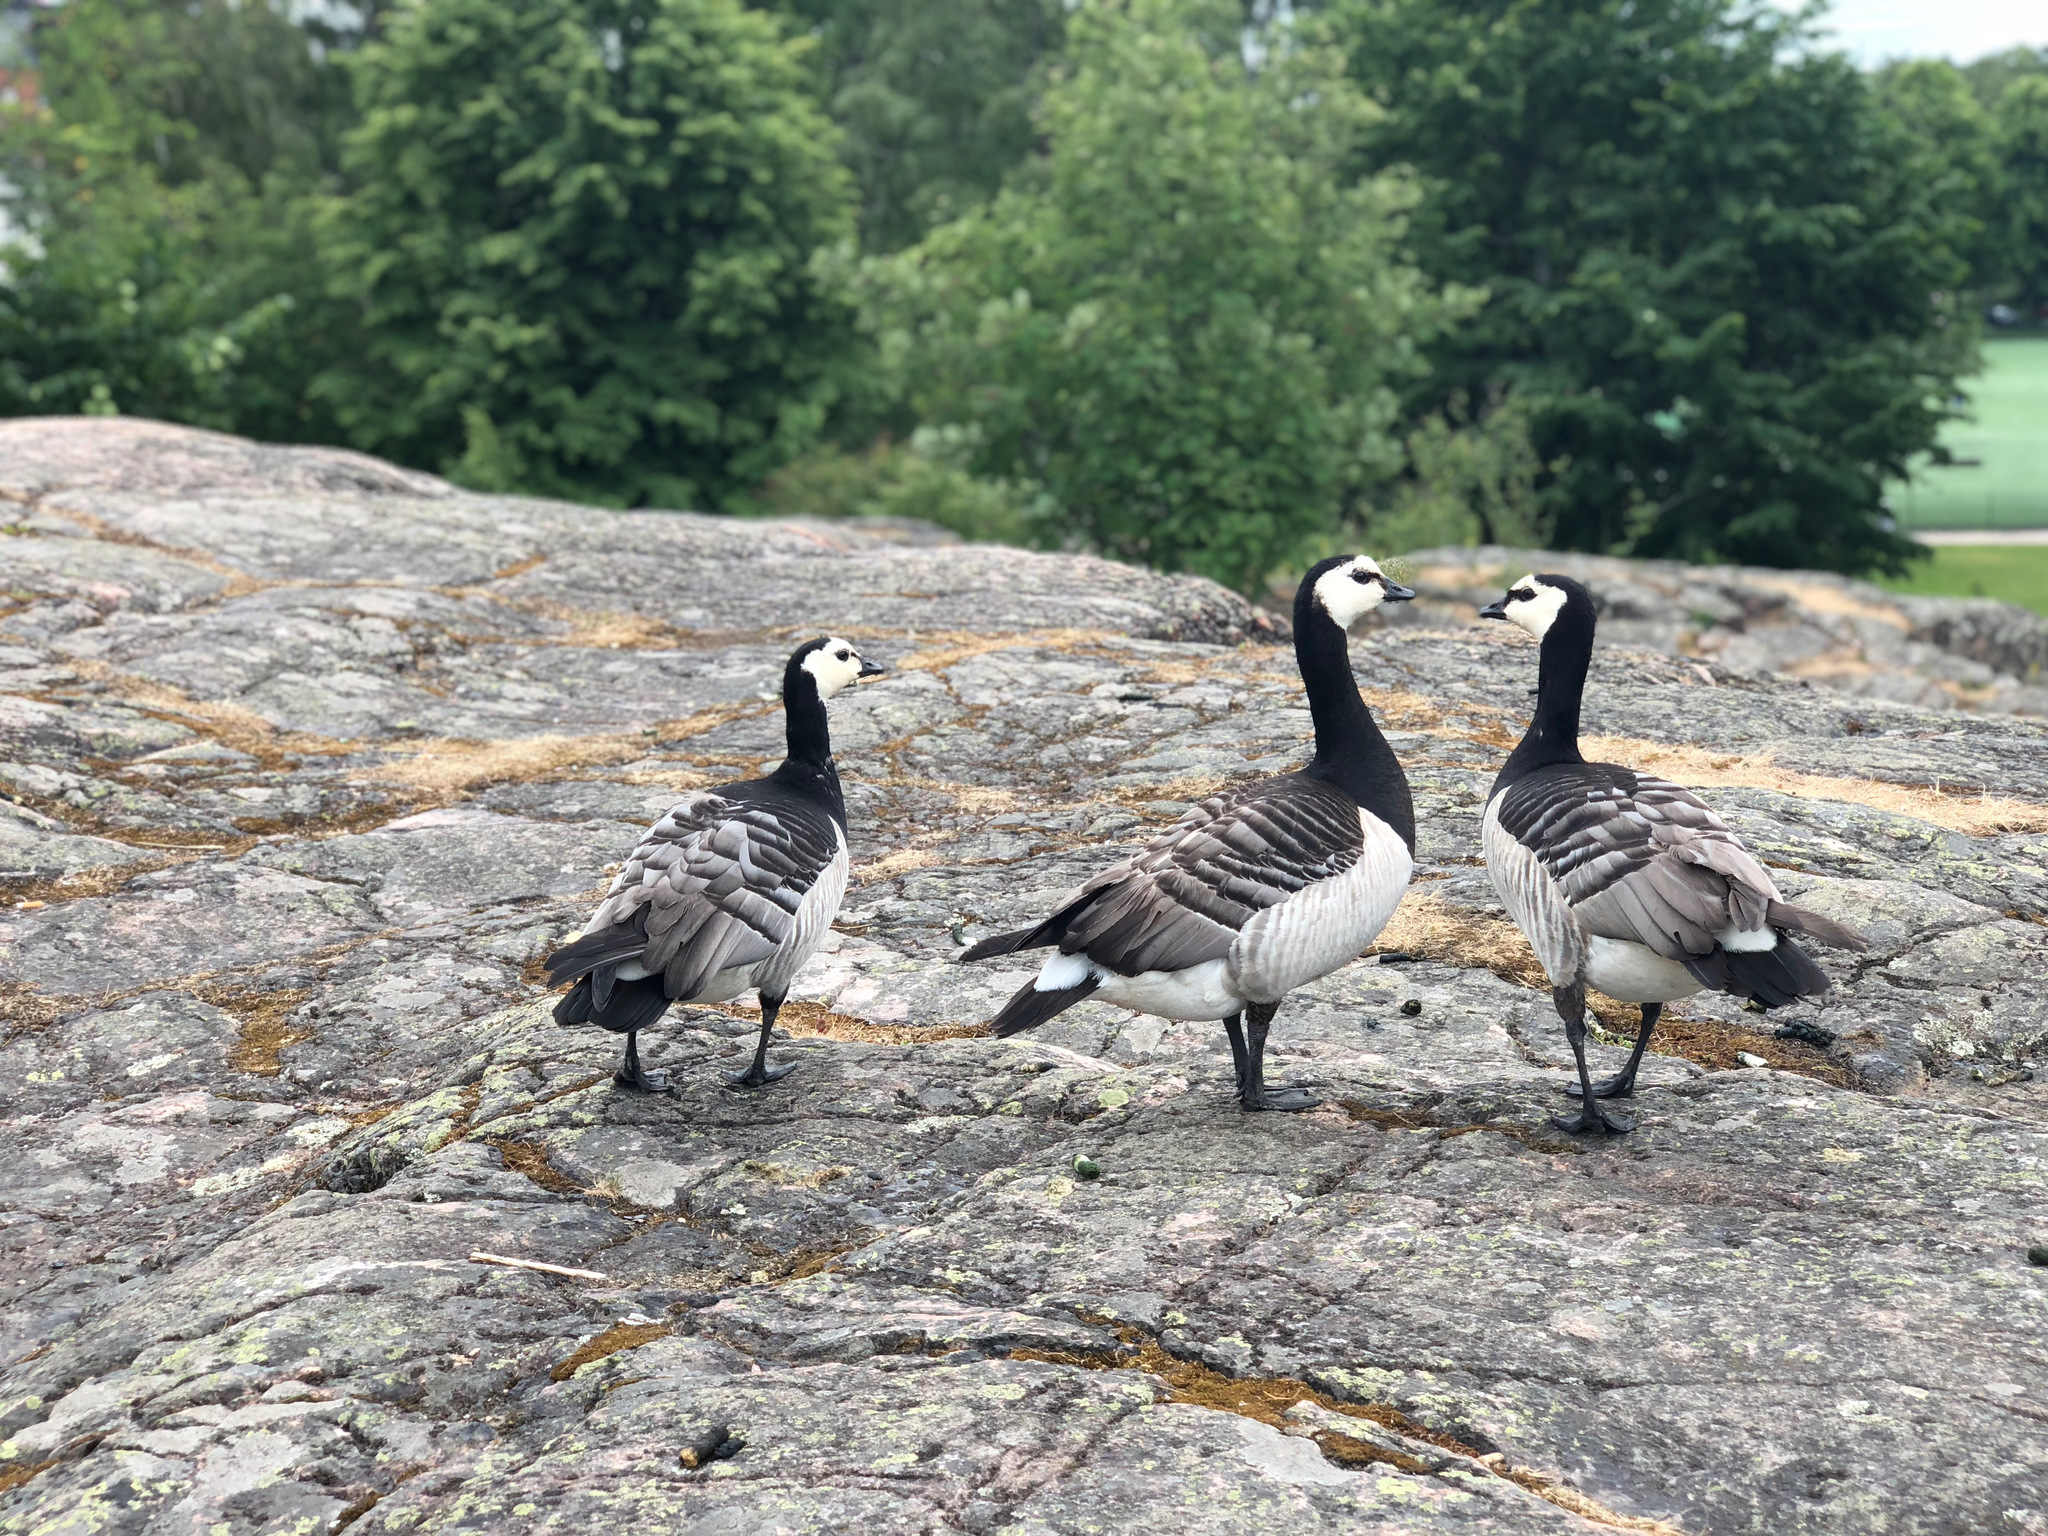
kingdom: Animalia
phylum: Chordata
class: Aves
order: Anseriformes
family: Anatidae
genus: Branta
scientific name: Branta leucopsis
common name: Barnacle goose
